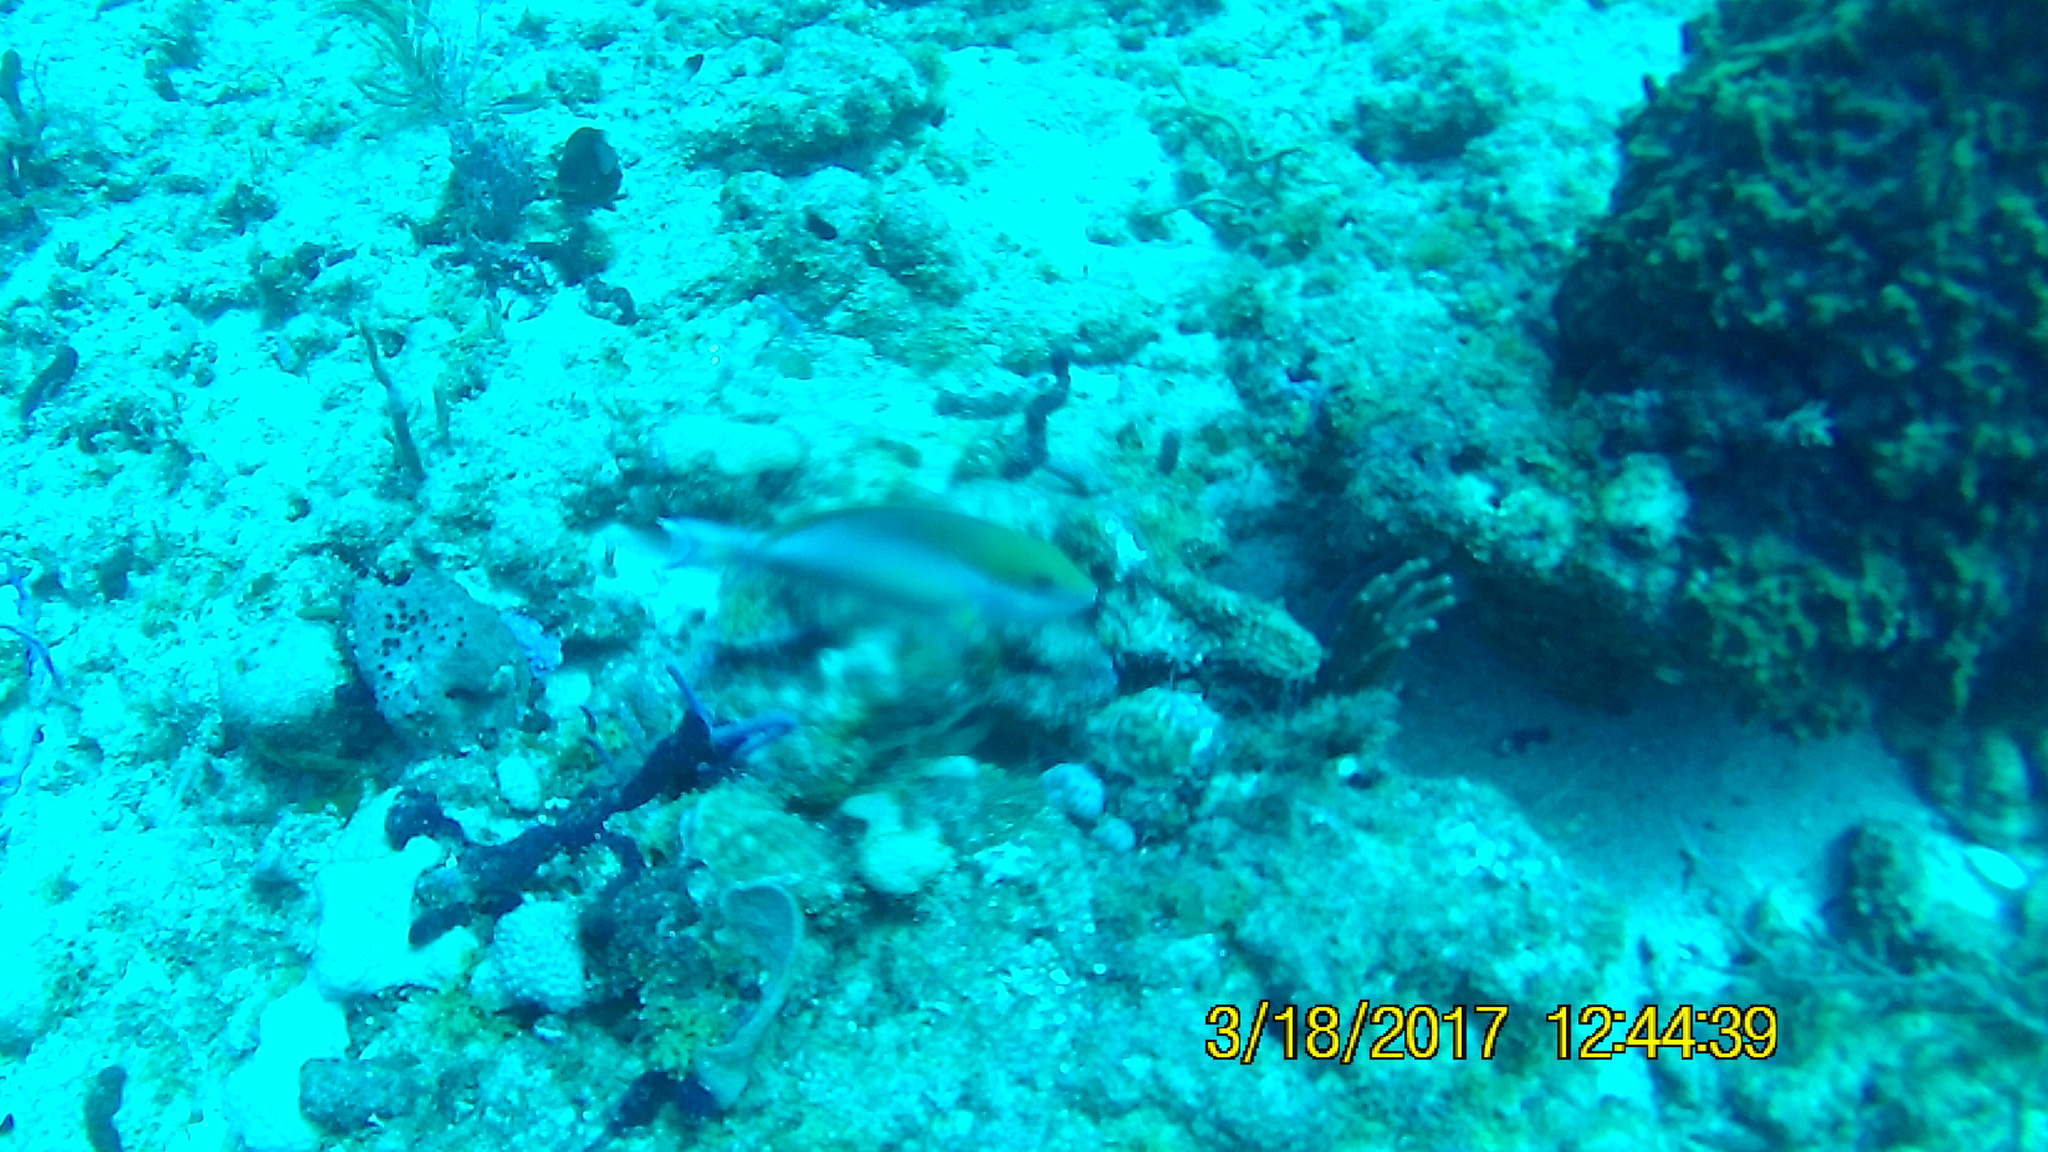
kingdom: Animalia
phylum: Chordata
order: Perciformes
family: Scaridae
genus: Sparisoma
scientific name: Sparisoma aurofrenatum
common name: Redband parrotfish
